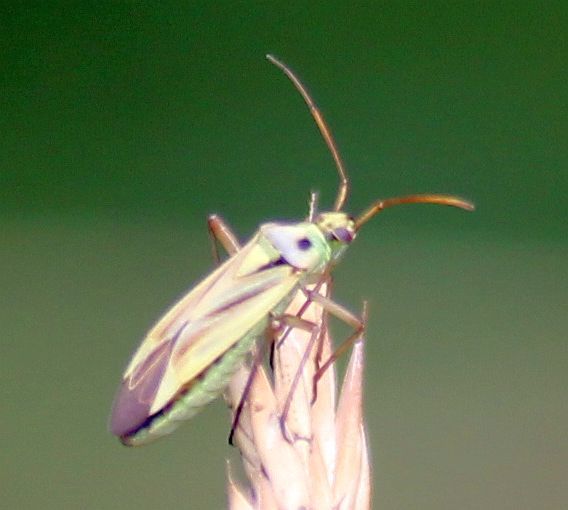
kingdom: Animalia
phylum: Arthropoda
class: Insecta
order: Hemiptera
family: Miridae
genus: Stenotus
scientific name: Stenotus binotatus
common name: Plant bug
